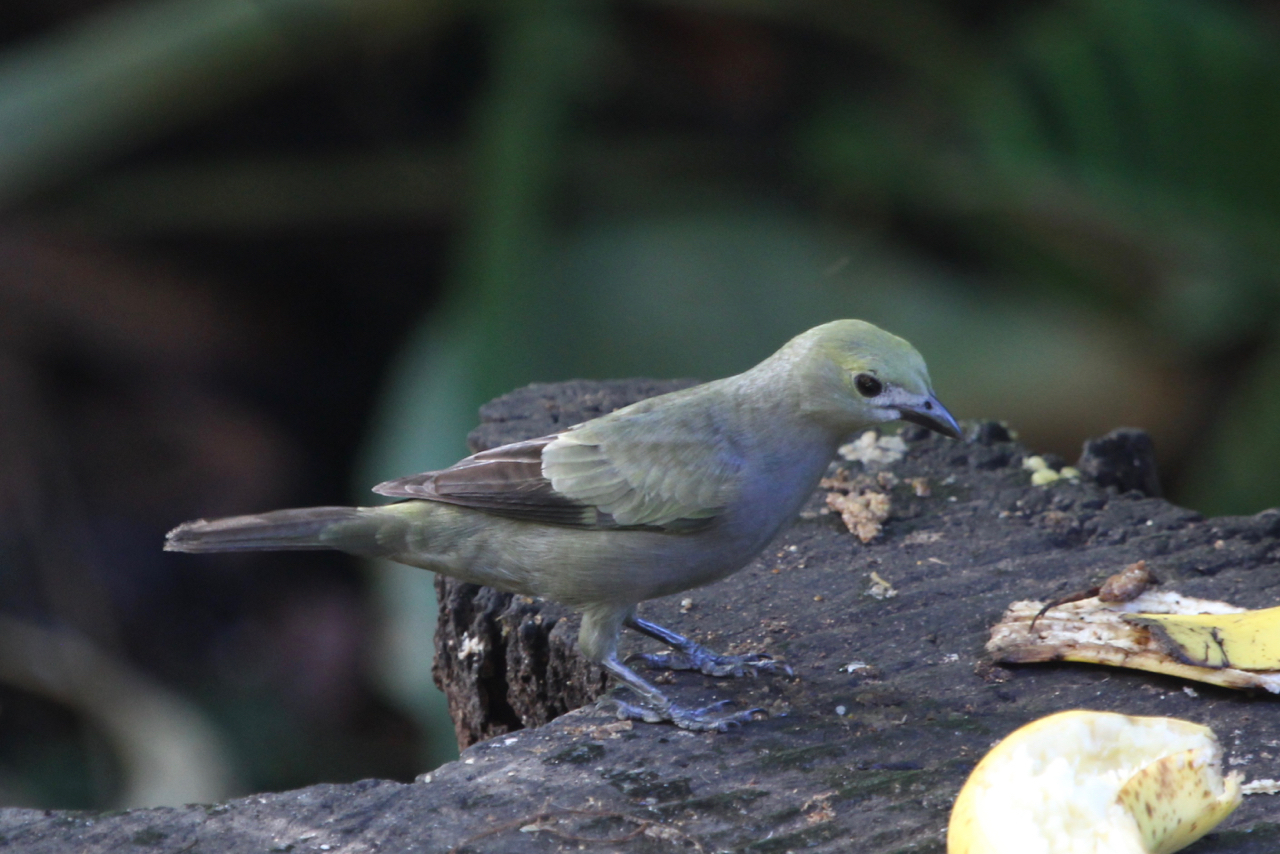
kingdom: Animalia
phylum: Chordata
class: Aves
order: Passeriformes
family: Thraupidae
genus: Thraupis
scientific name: Thraupis palmarum
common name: Palm tanager
